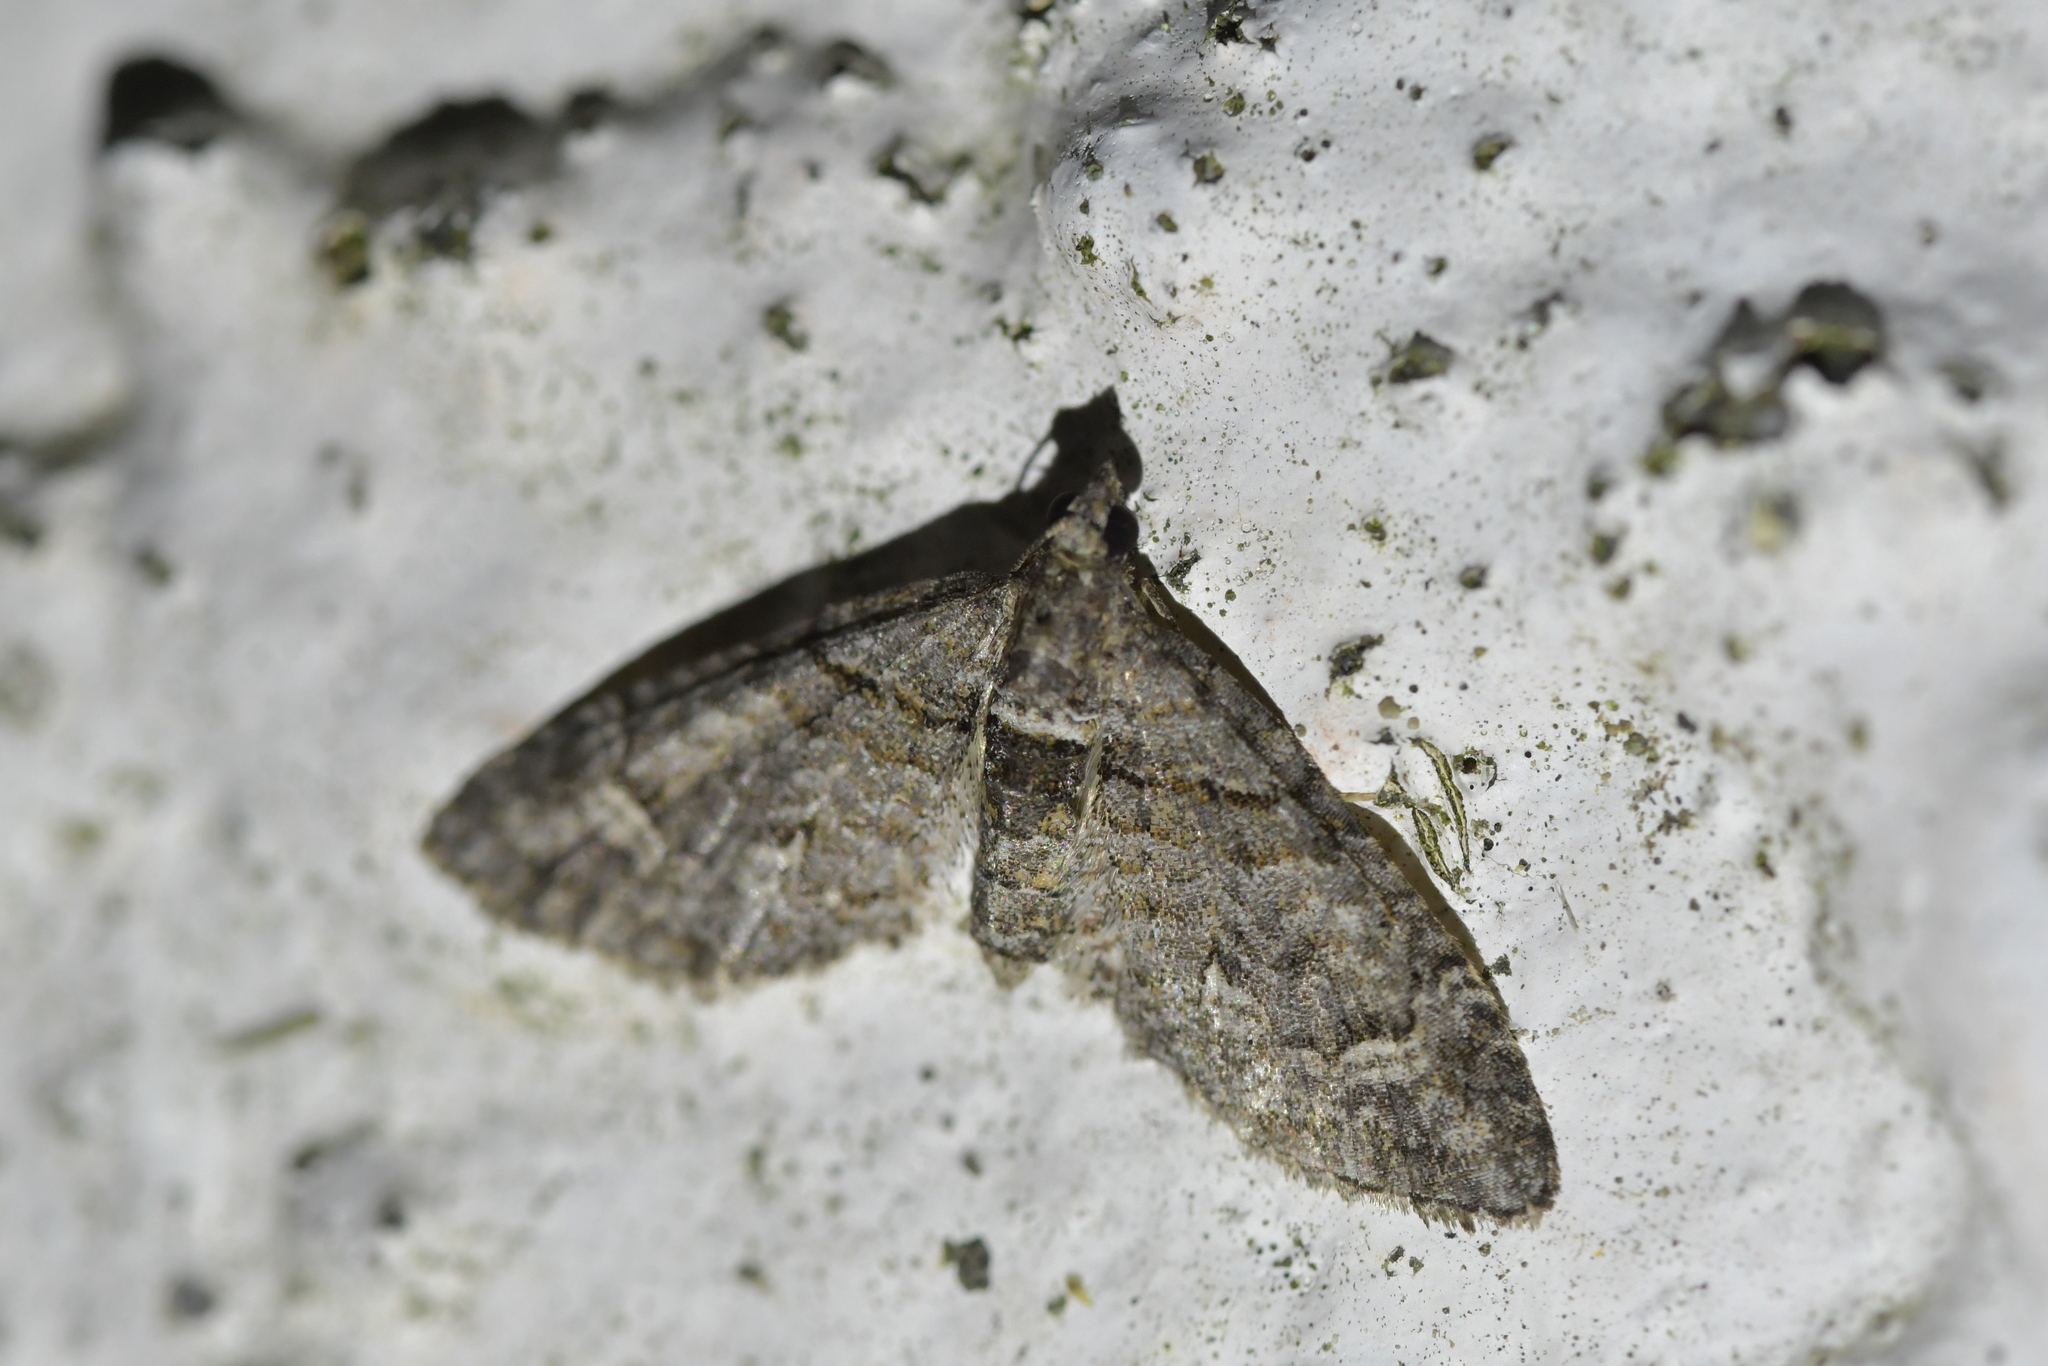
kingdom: Animalia
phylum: Arthropoda
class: Insecta
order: Lepidoptera
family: Geometridae
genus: Phrissogonus
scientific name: Phrissogonus laticostata
